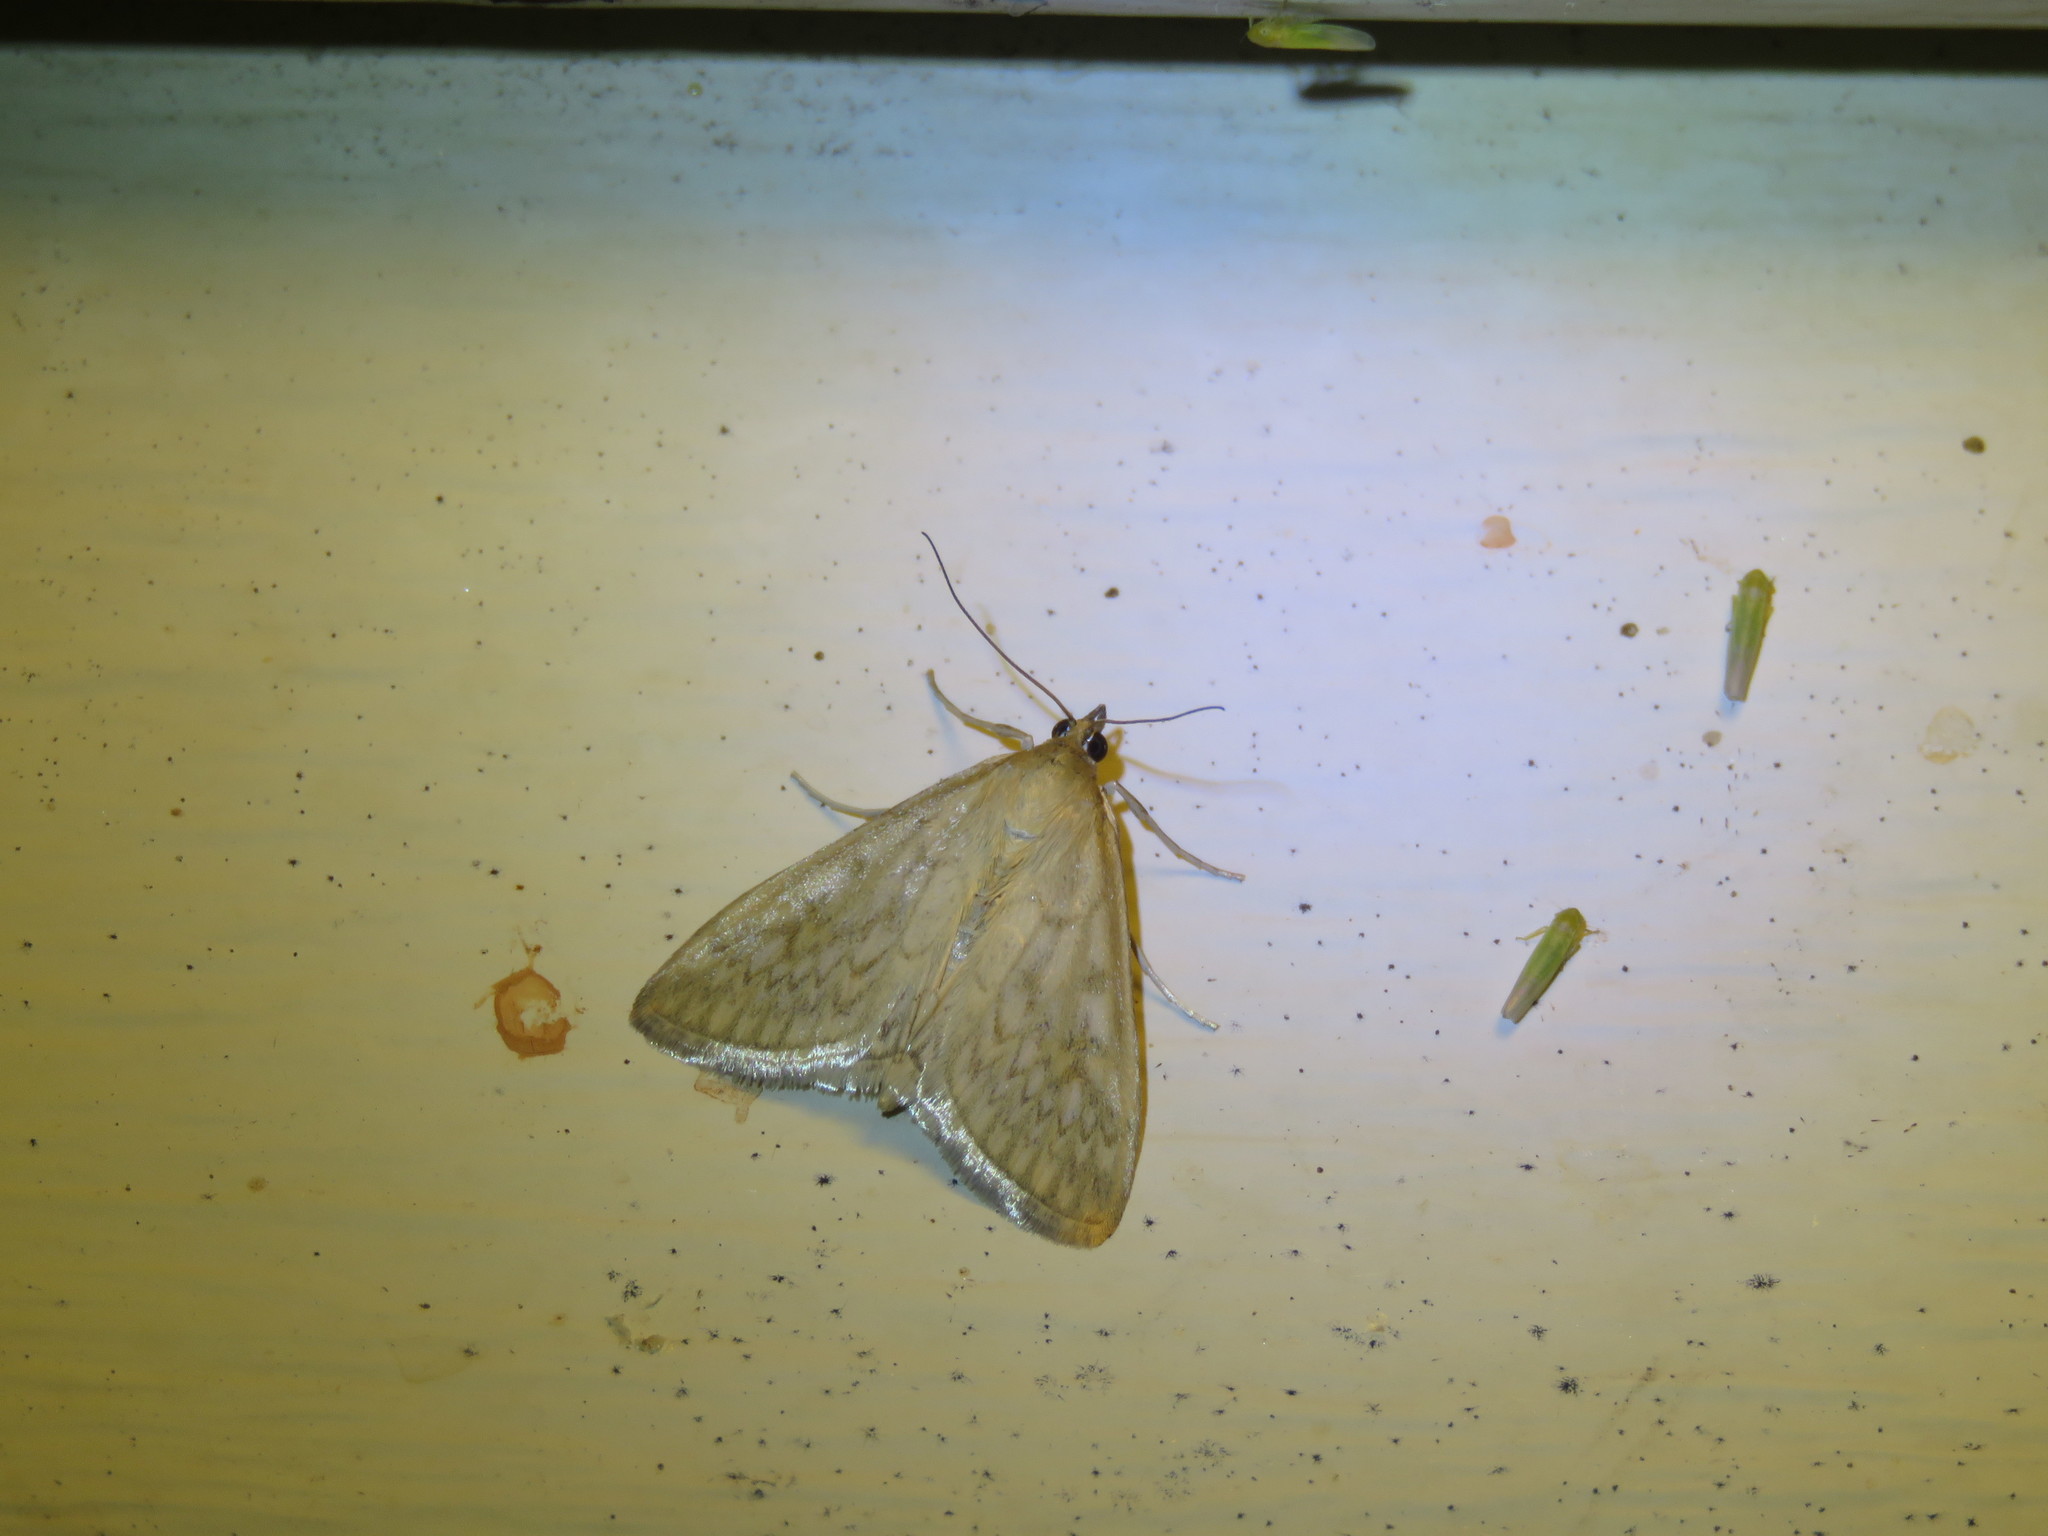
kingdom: Animalia
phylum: Arthropoda
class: Insecta
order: Lepidoptera
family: Crambidae
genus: Sitochroa
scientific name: Sitochroa chortalis
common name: Dimorphic sitochroa moth
